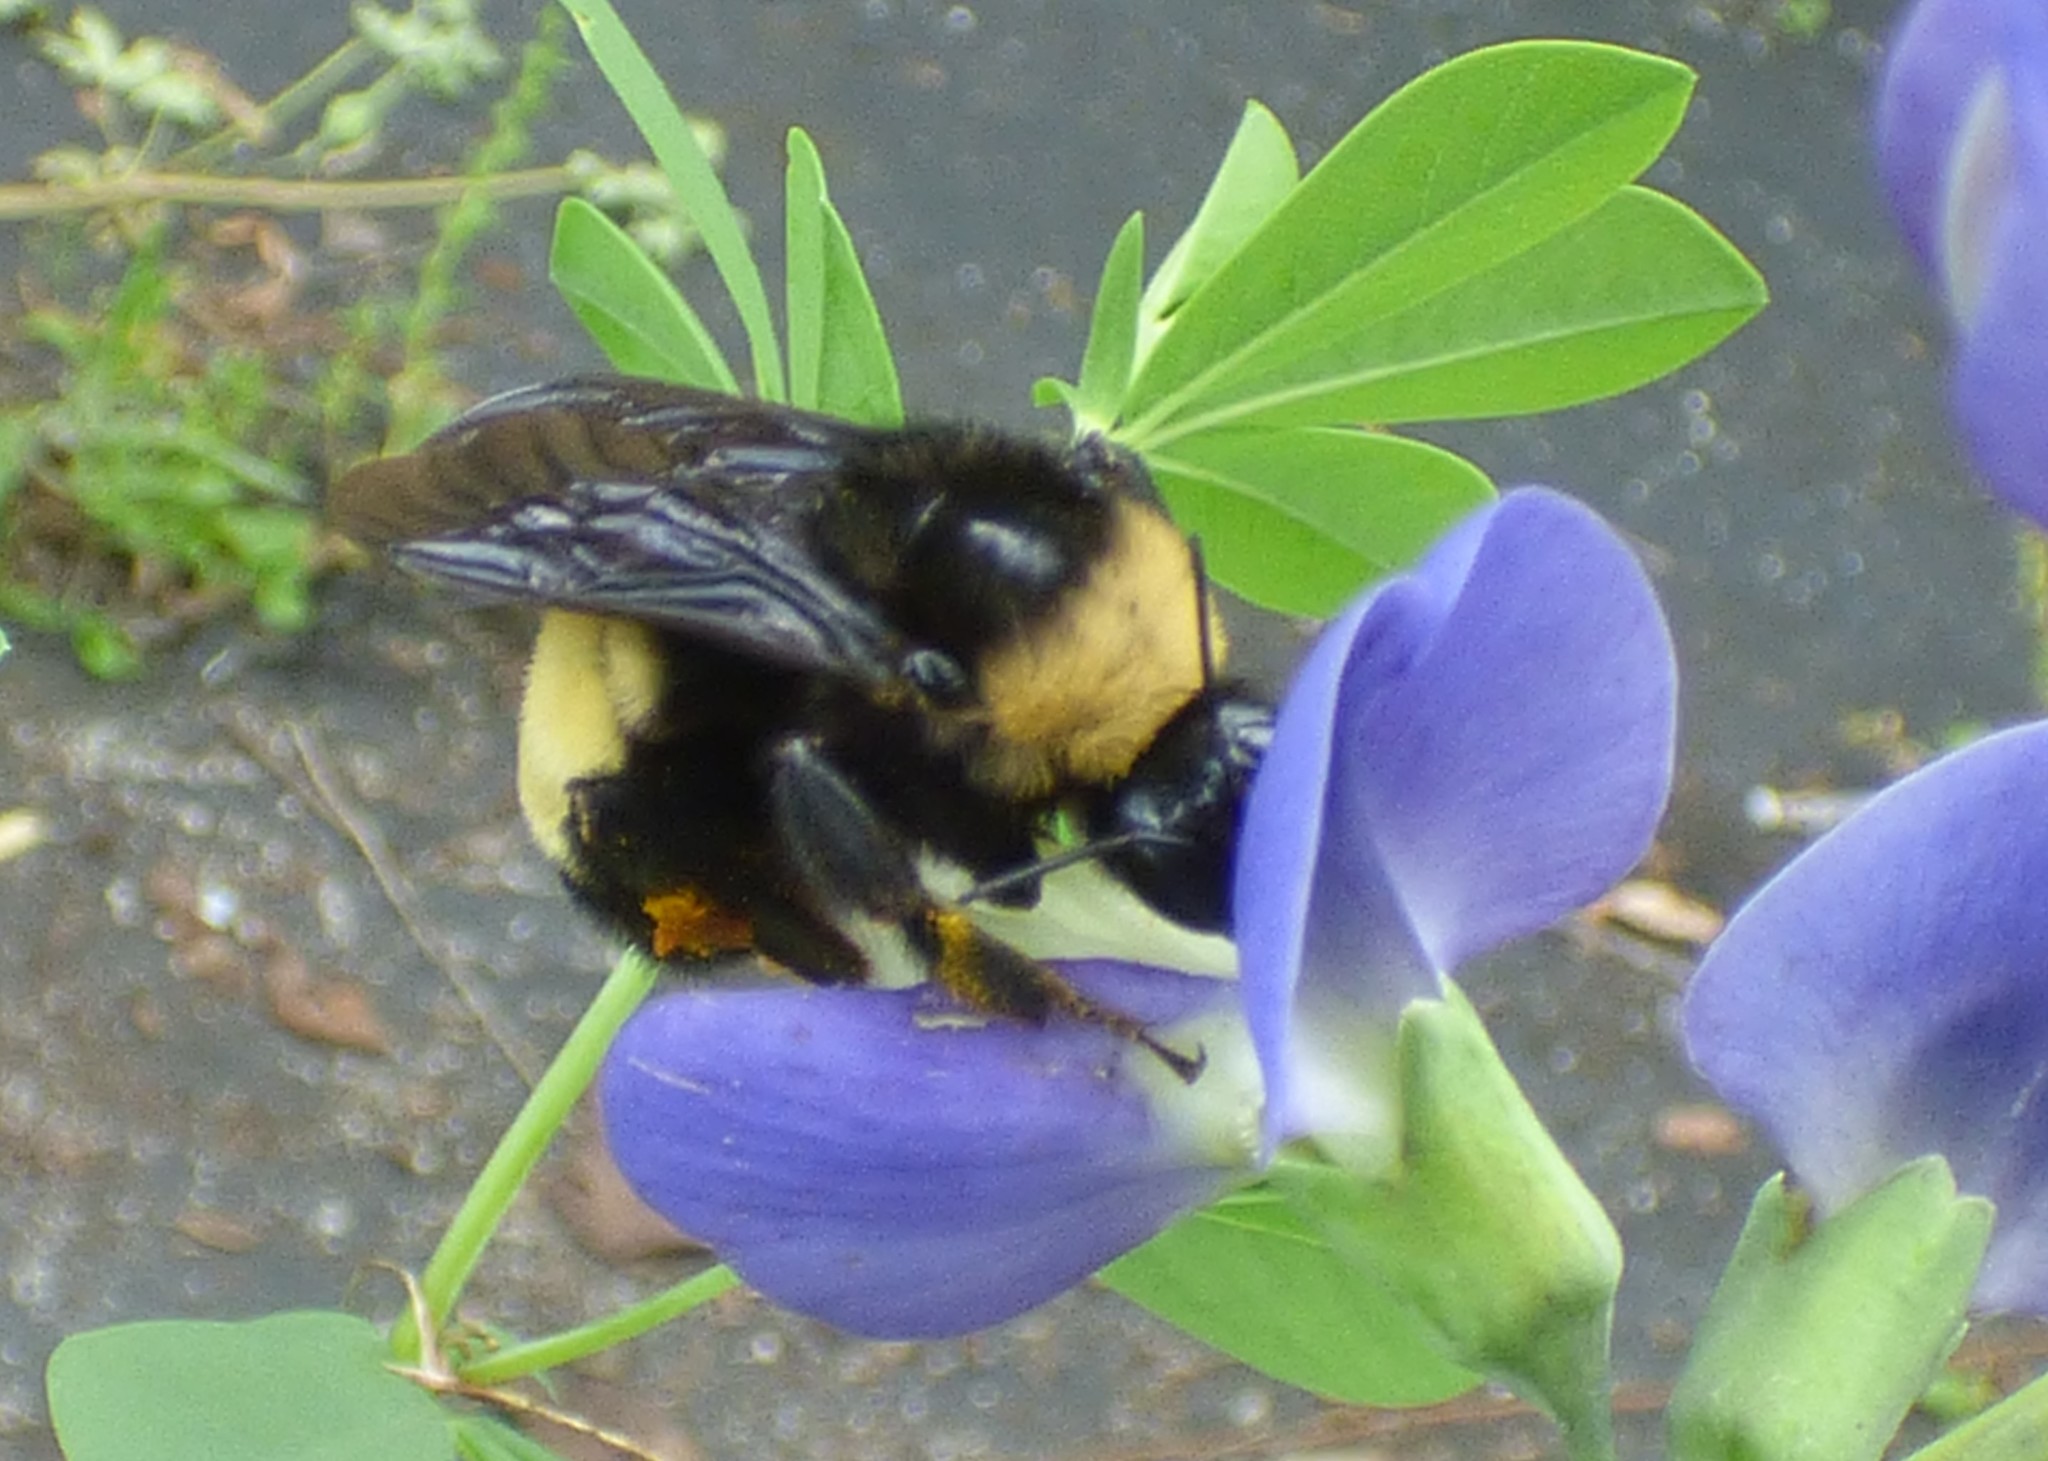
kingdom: Animalia
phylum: Arthropoda
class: Insecta
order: Hymenoptera
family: Apidae
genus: Bombus
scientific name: Bombus pensylvanicus
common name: Bumble bee
